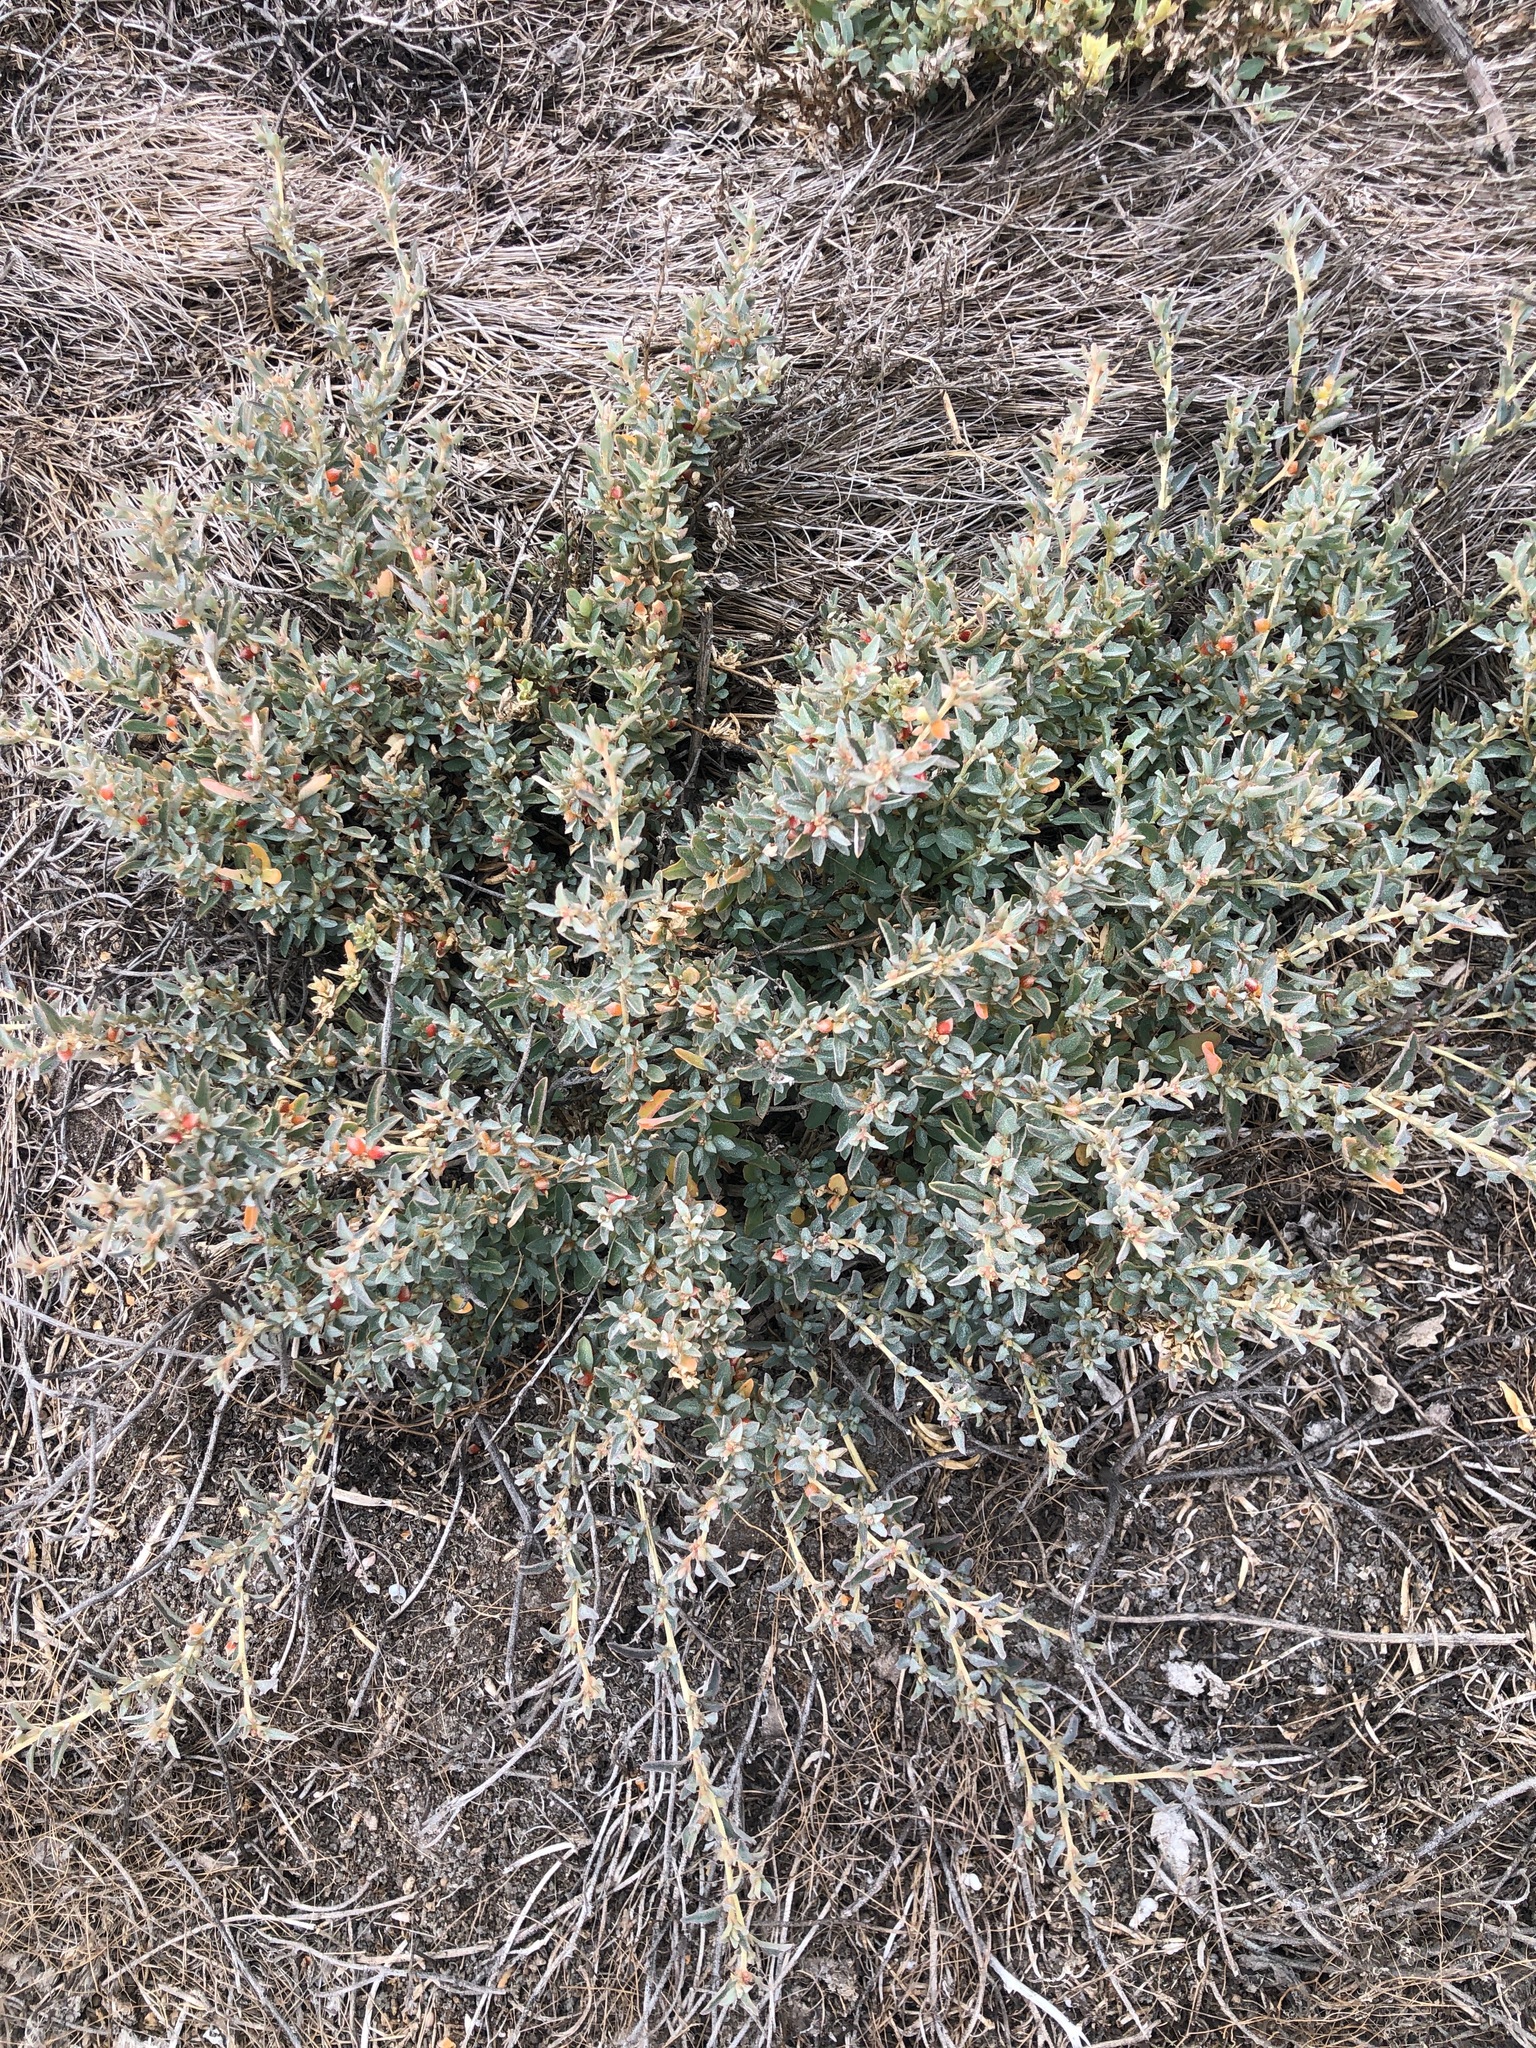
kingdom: Plantae
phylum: Tracheophyta
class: Magnoliopsida
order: Caryophyllales
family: Amaranthaceae
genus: Atriplex
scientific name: Atriplex semibaccata
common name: Australian saltbush
